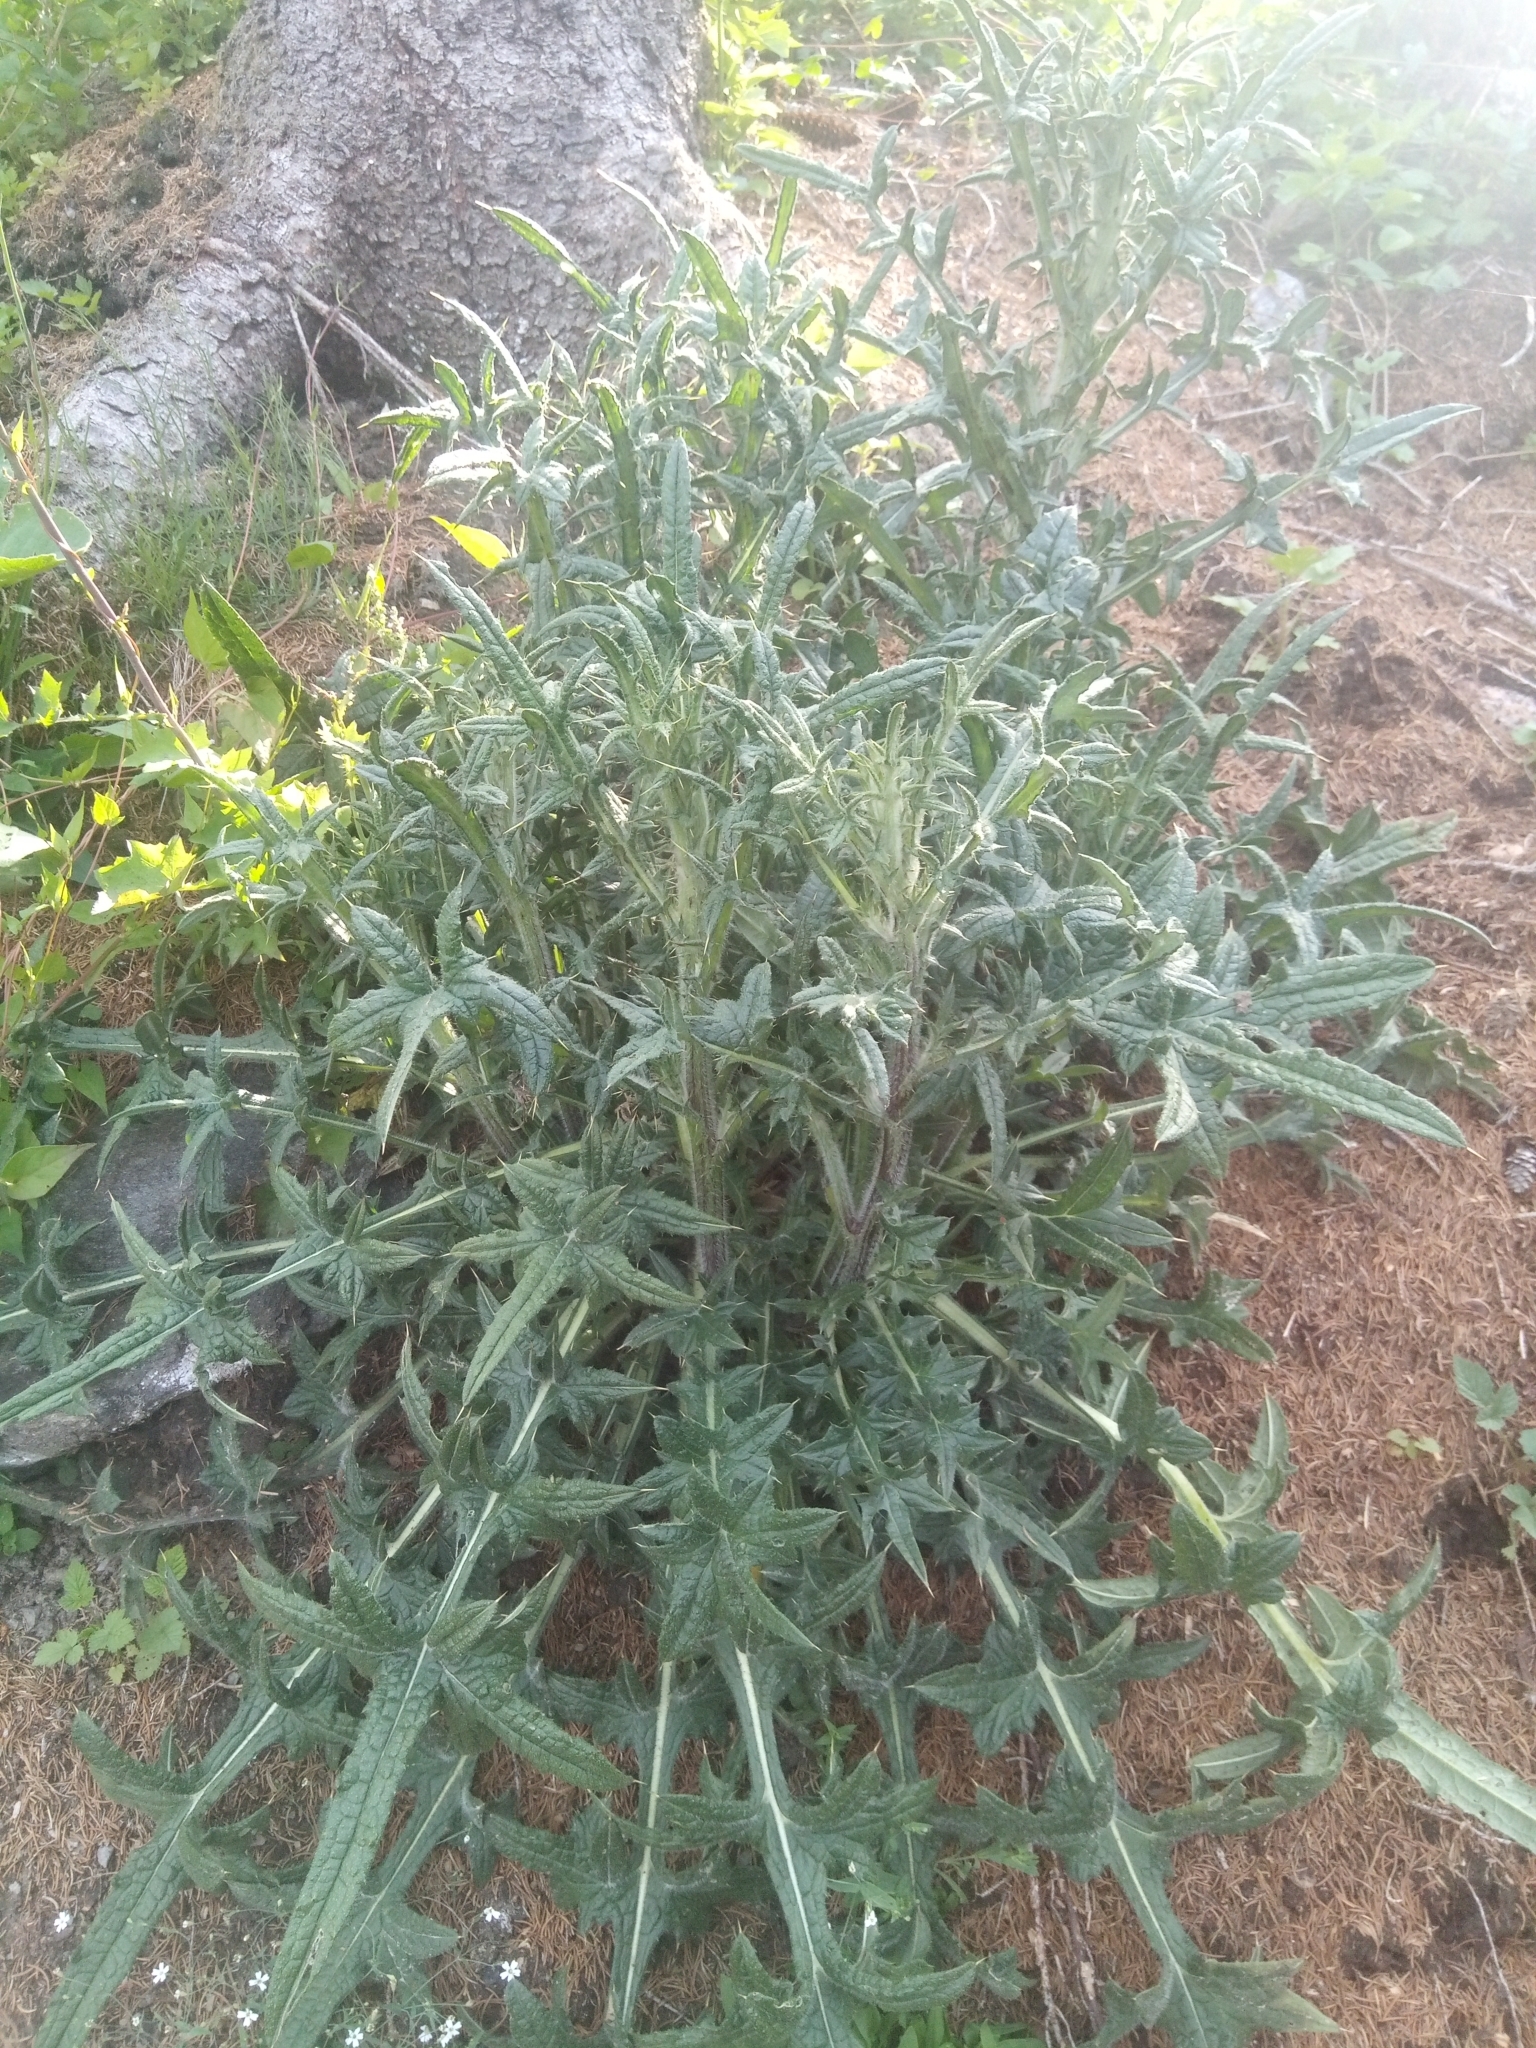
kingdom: Plantae
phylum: Tracheophyta
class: Magnoliopsida
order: Asterales
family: Asteraceae
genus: Cirsium
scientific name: Cirsium vulgare
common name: Bull thistle
